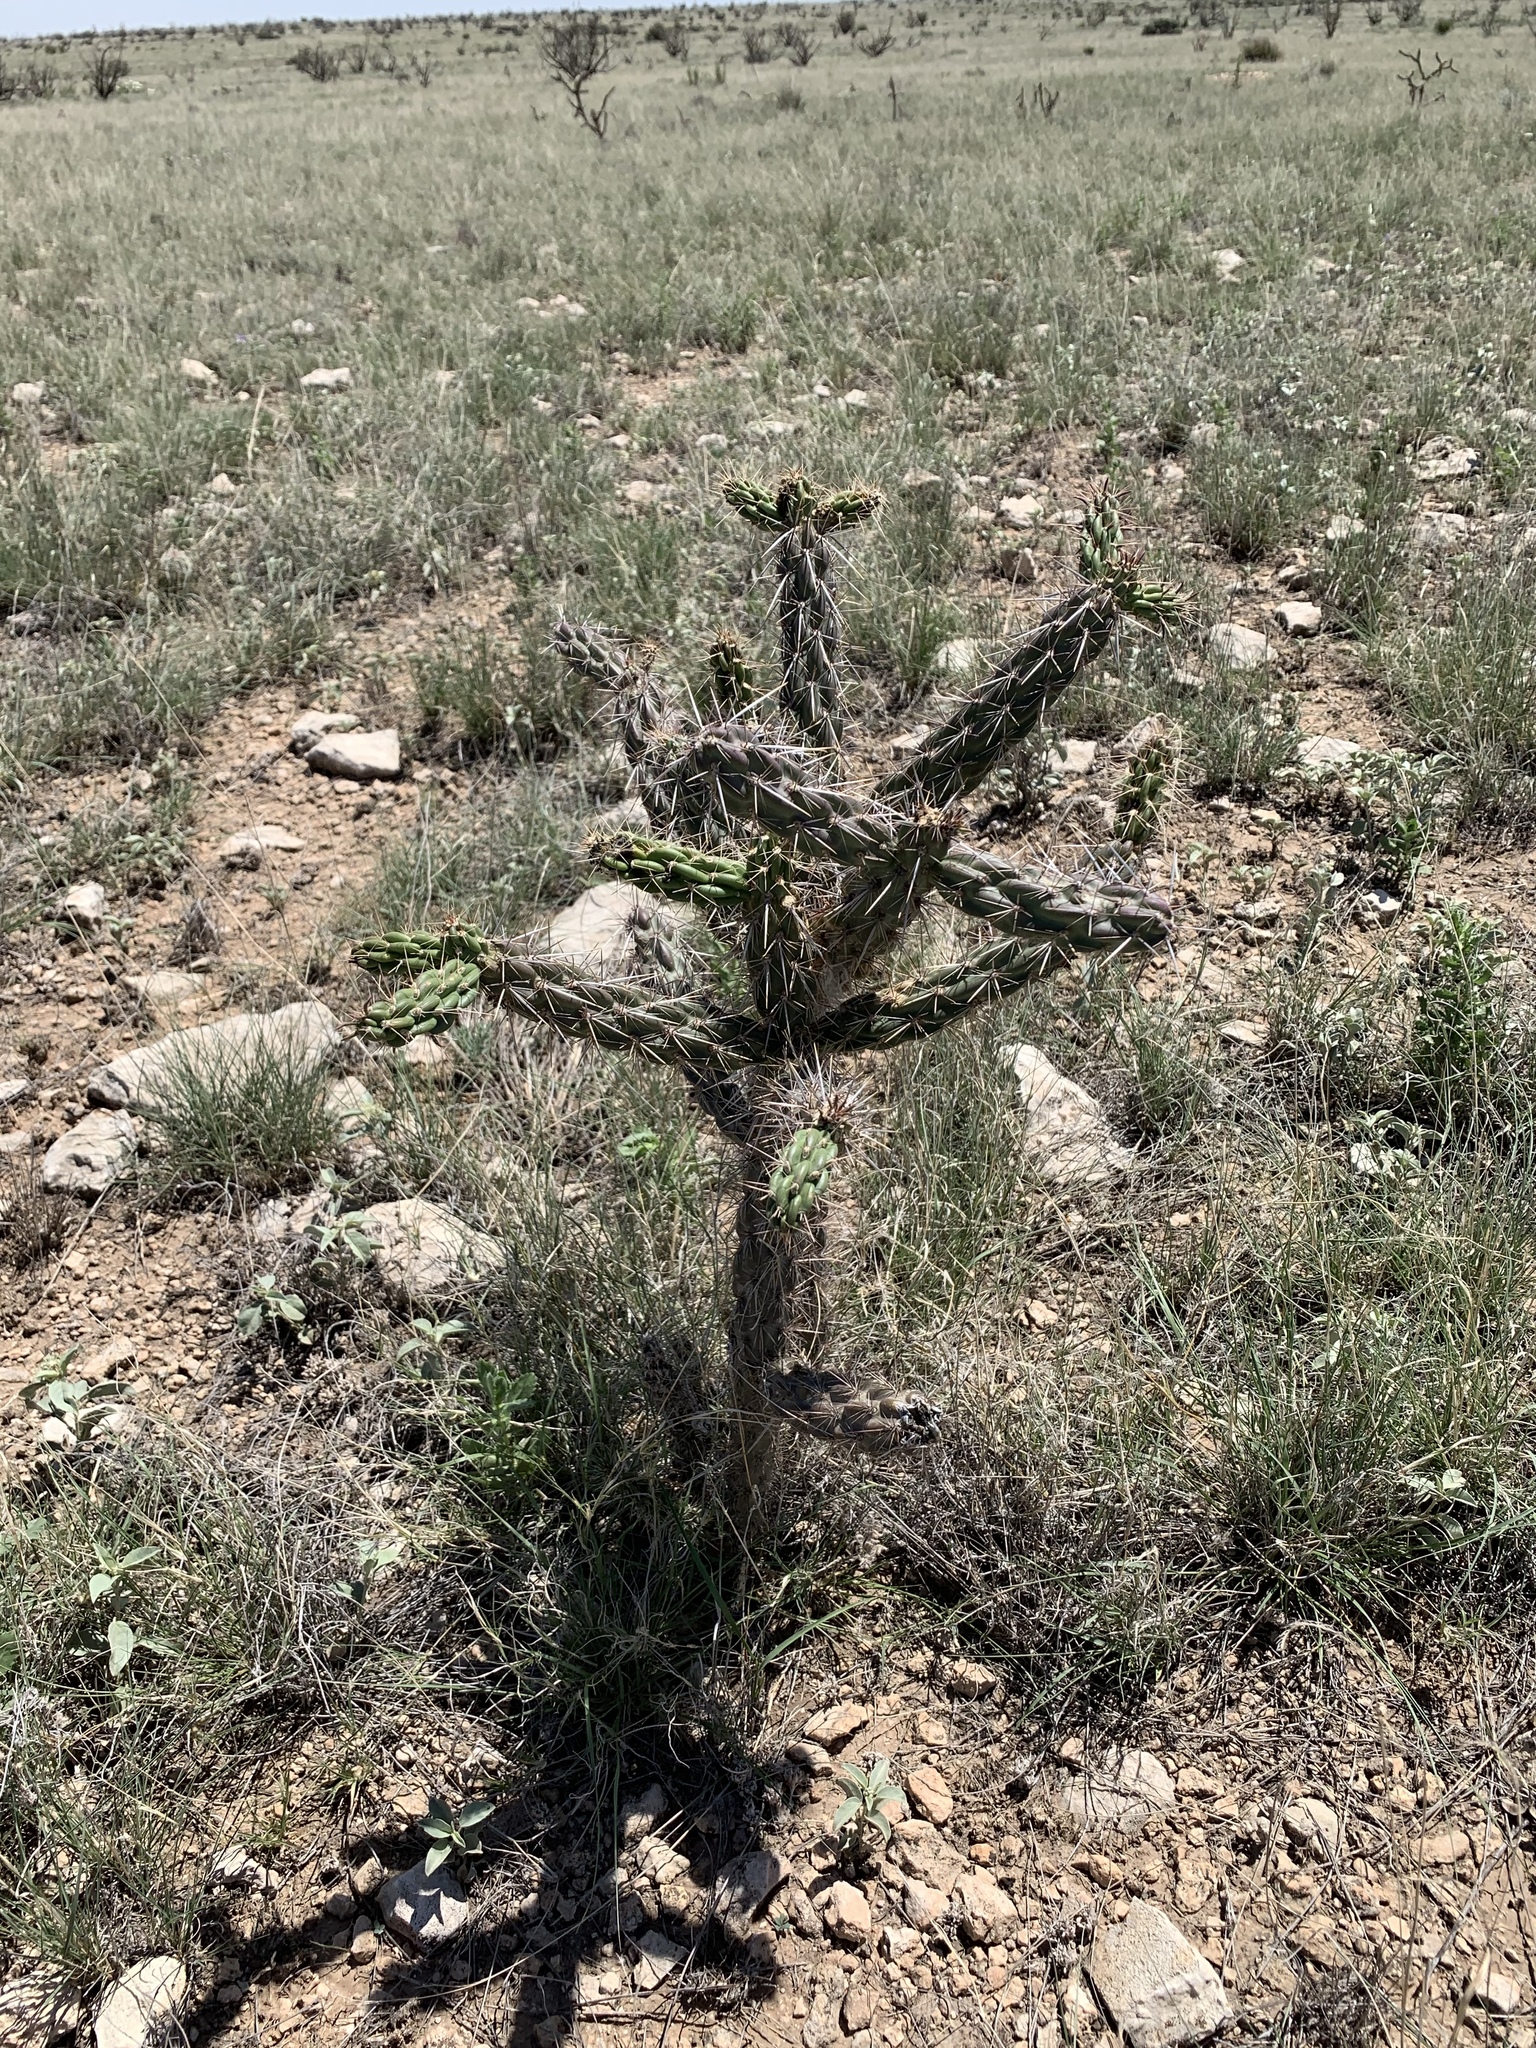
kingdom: Plantae
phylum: Tracheophyta
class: Magnoliopsida
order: Caryophyllales
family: Cactaceae
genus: Cylindropuntia
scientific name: Cylindropuntia imbricata
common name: Candelabrum cactus
